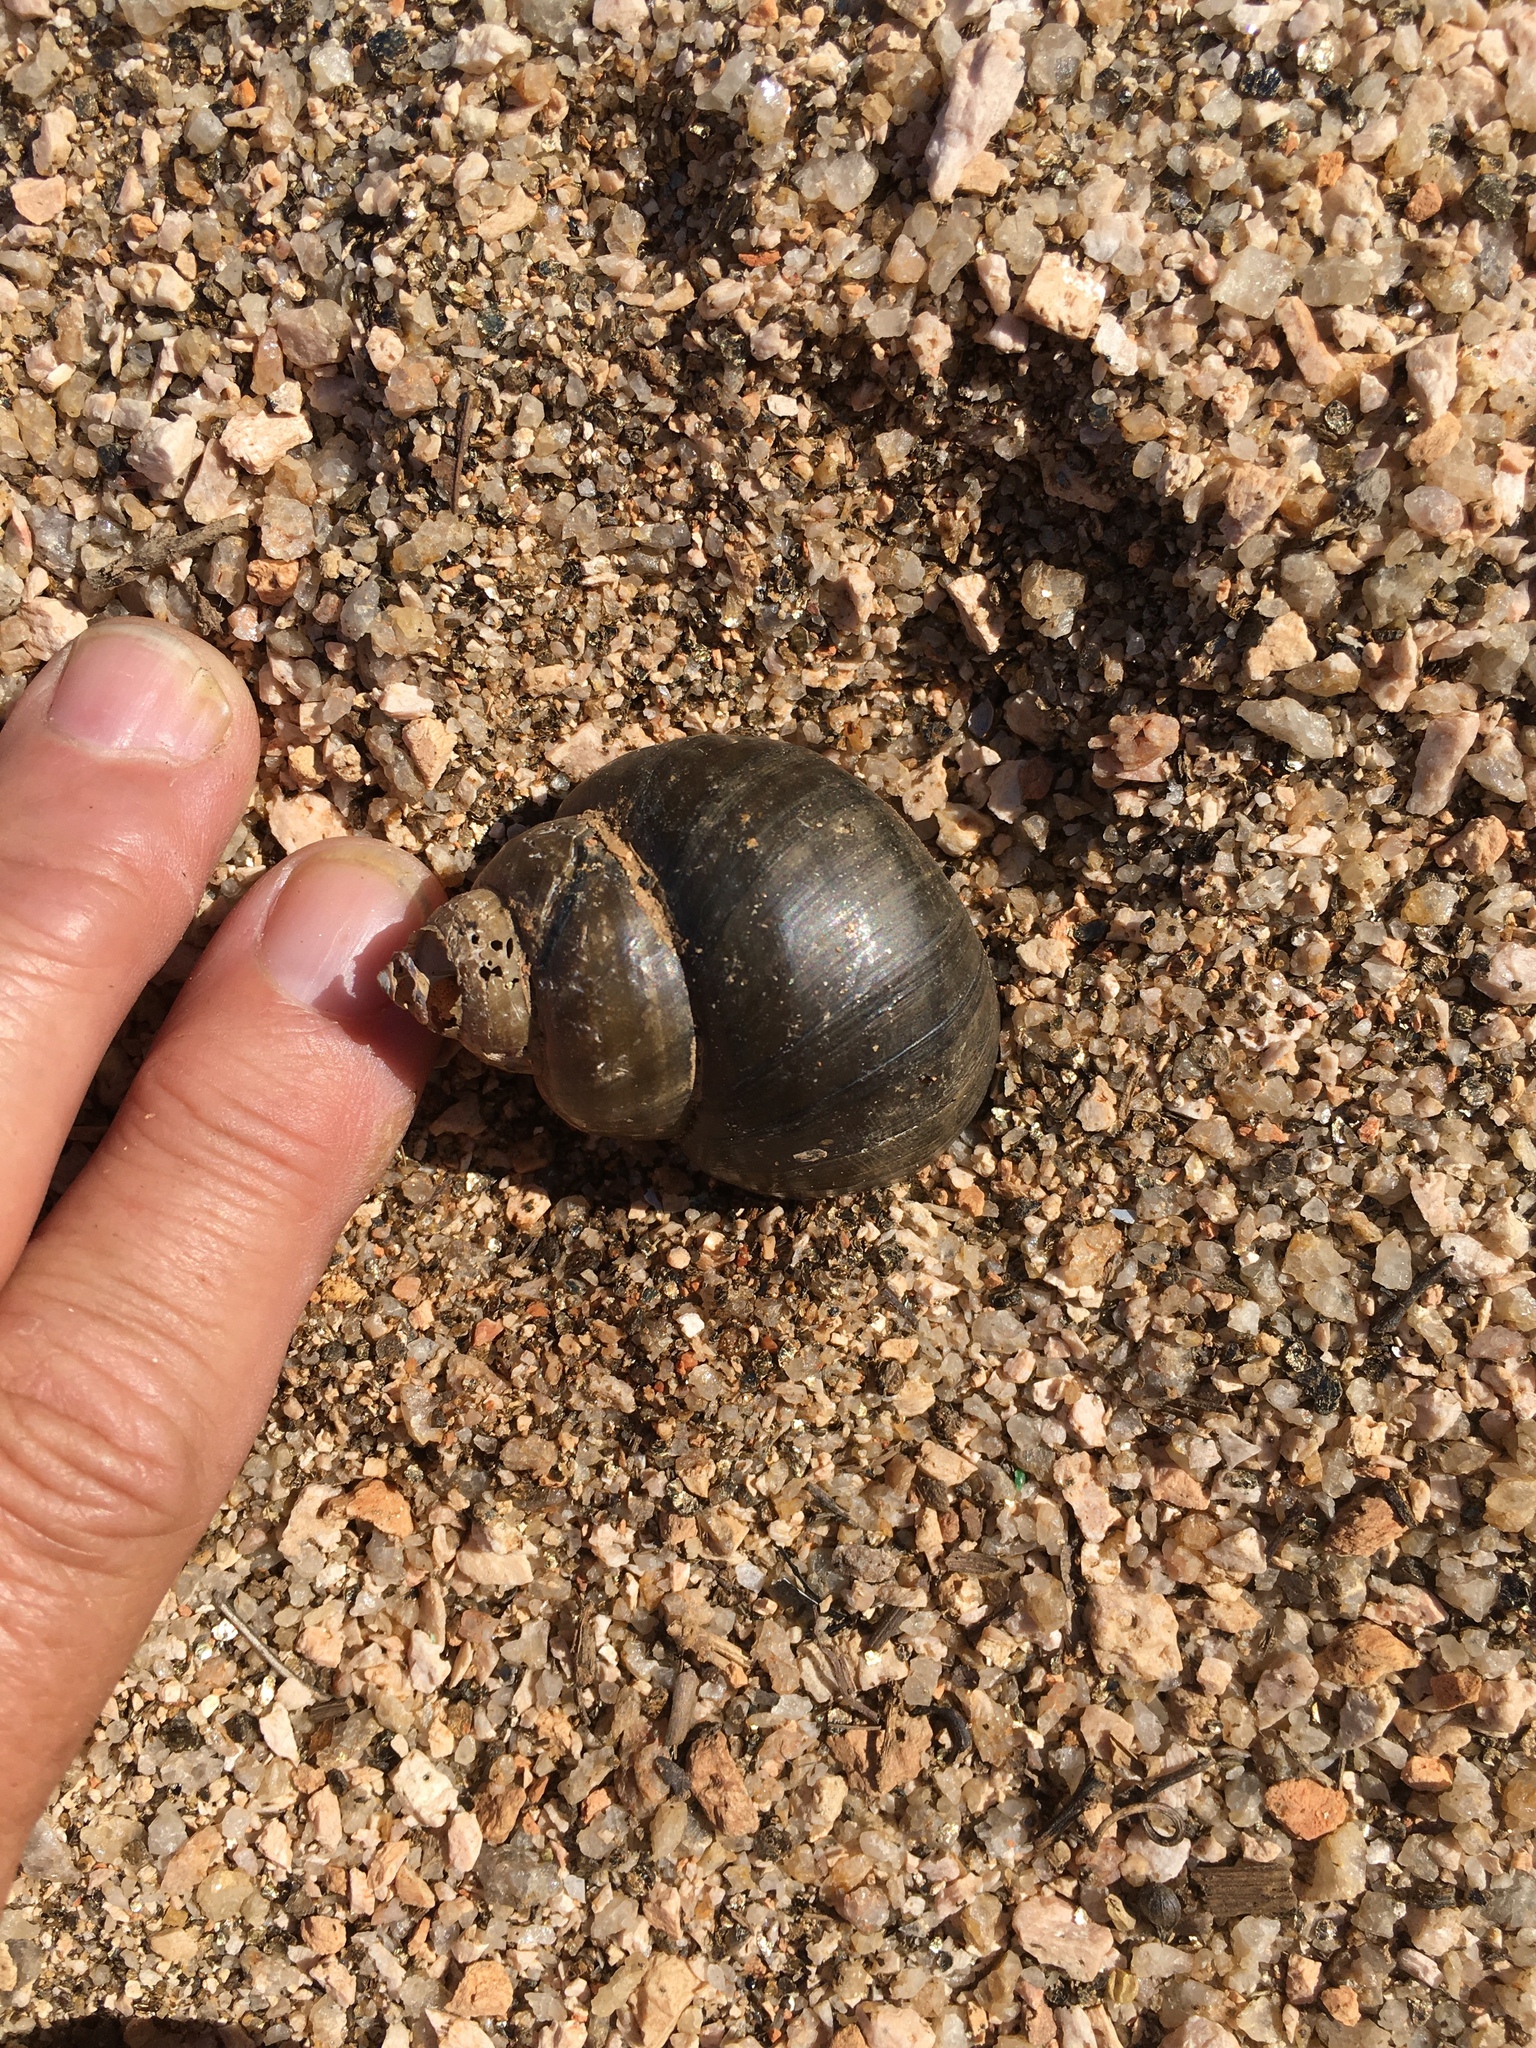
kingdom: Animalia
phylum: Mollusca
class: Gastropoda
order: Architaenioglossa
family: Viviparidae
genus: Cipangopaludina
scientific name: Cipangopaludina chinensis
